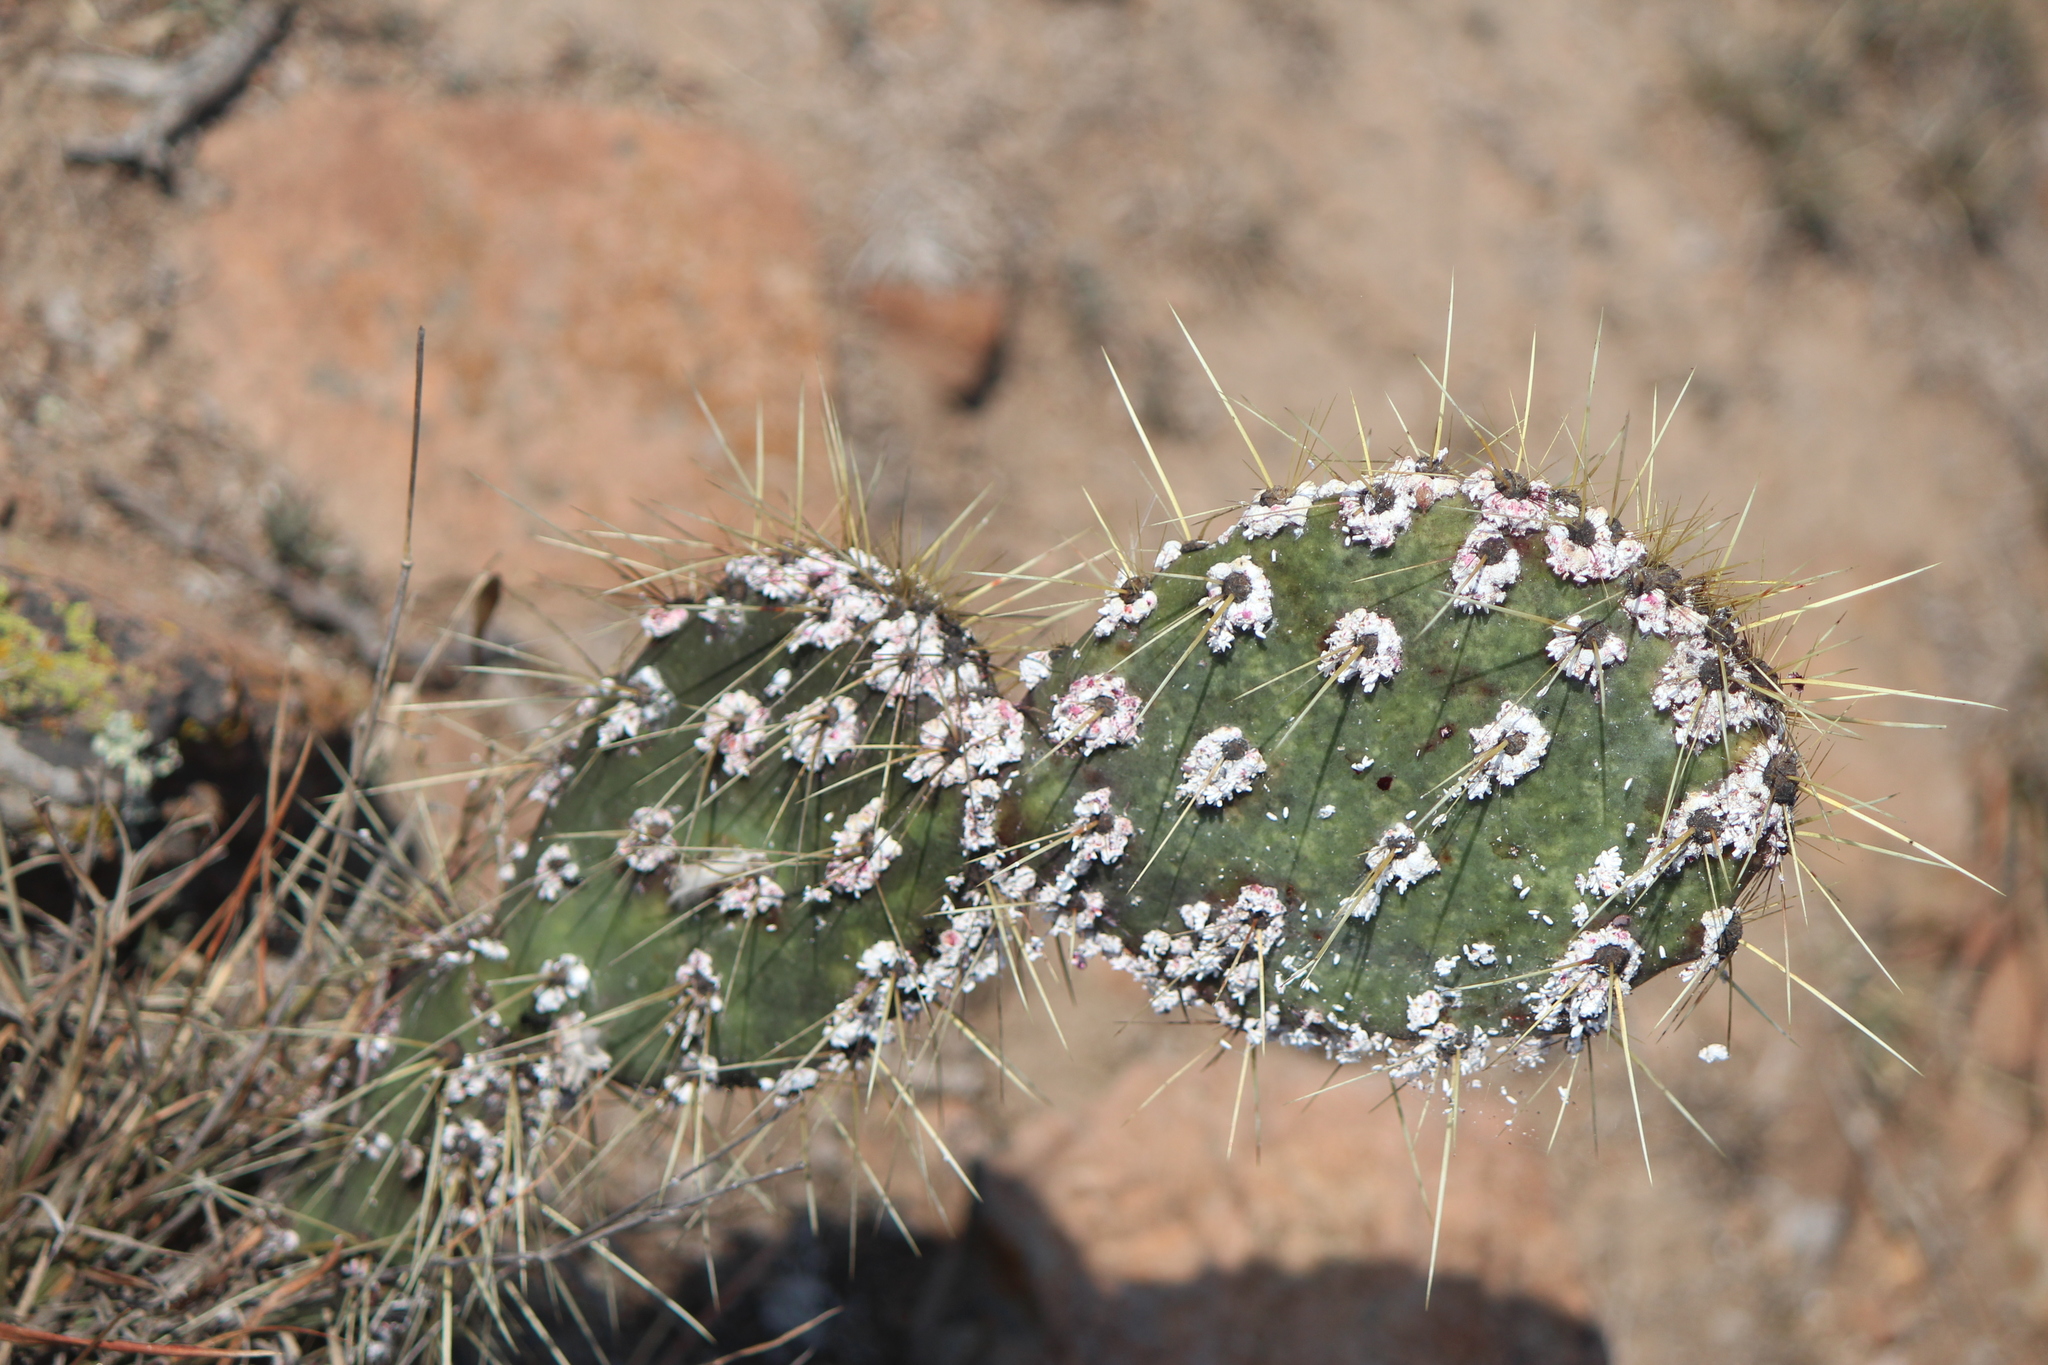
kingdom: Animalia
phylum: Arthropoda
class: Insecta
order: Hemiptera
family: Dactylopiidae
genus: Dactylopius
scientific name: Dactylopius opuntiae
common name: Opuntia cochineal scale
